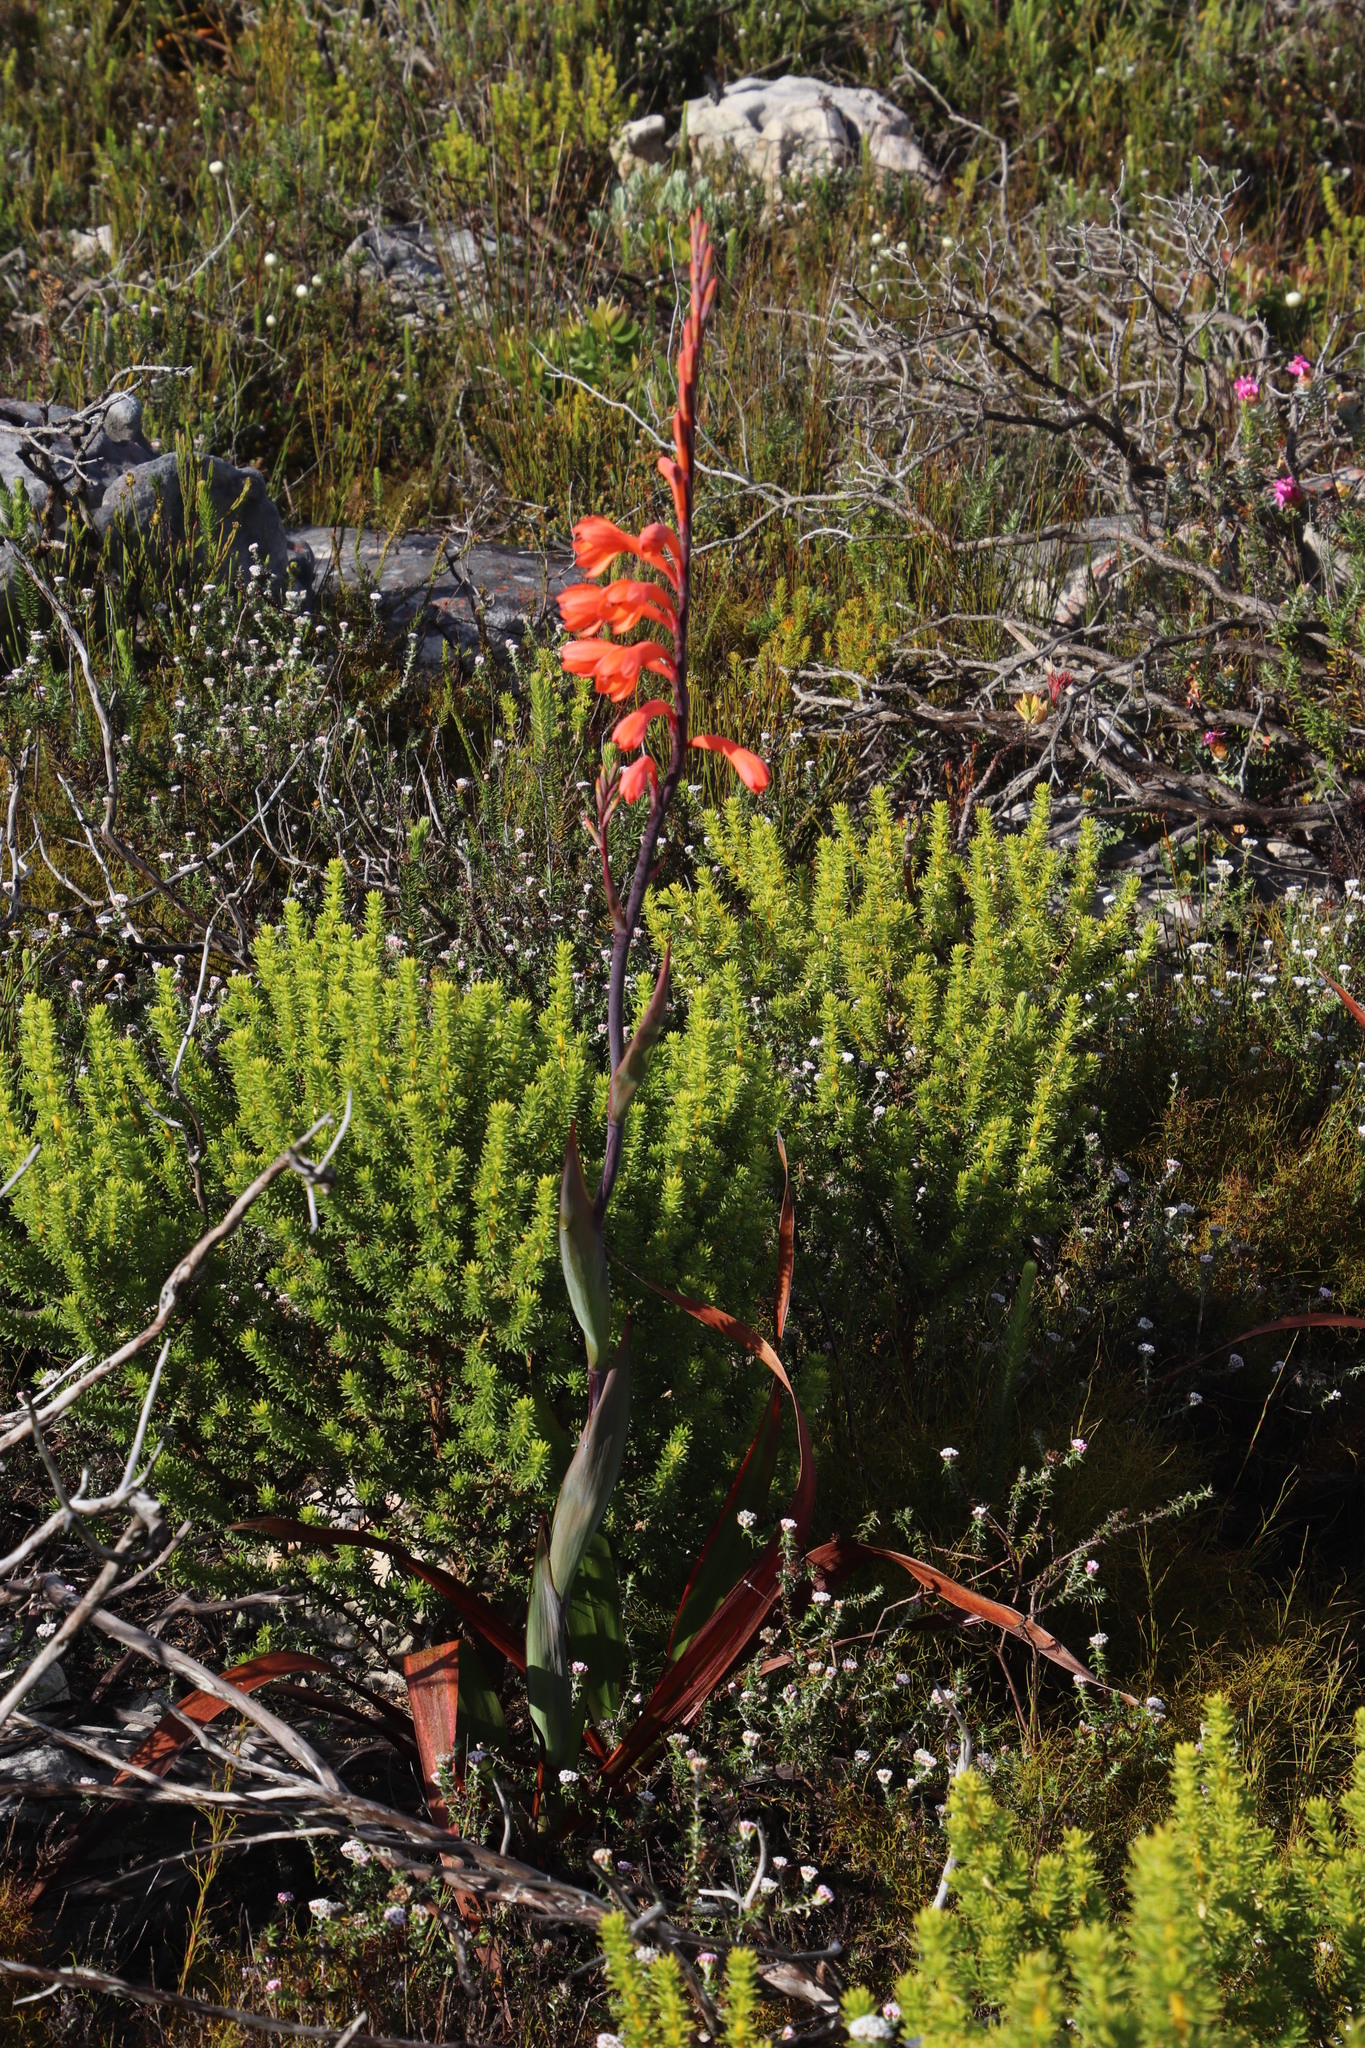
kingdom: Plantae
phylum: Tracheophyta
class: Liliopsida
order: Asparagales
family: Iridaceae
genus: Watsonia
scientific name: Watsonia tabularis
